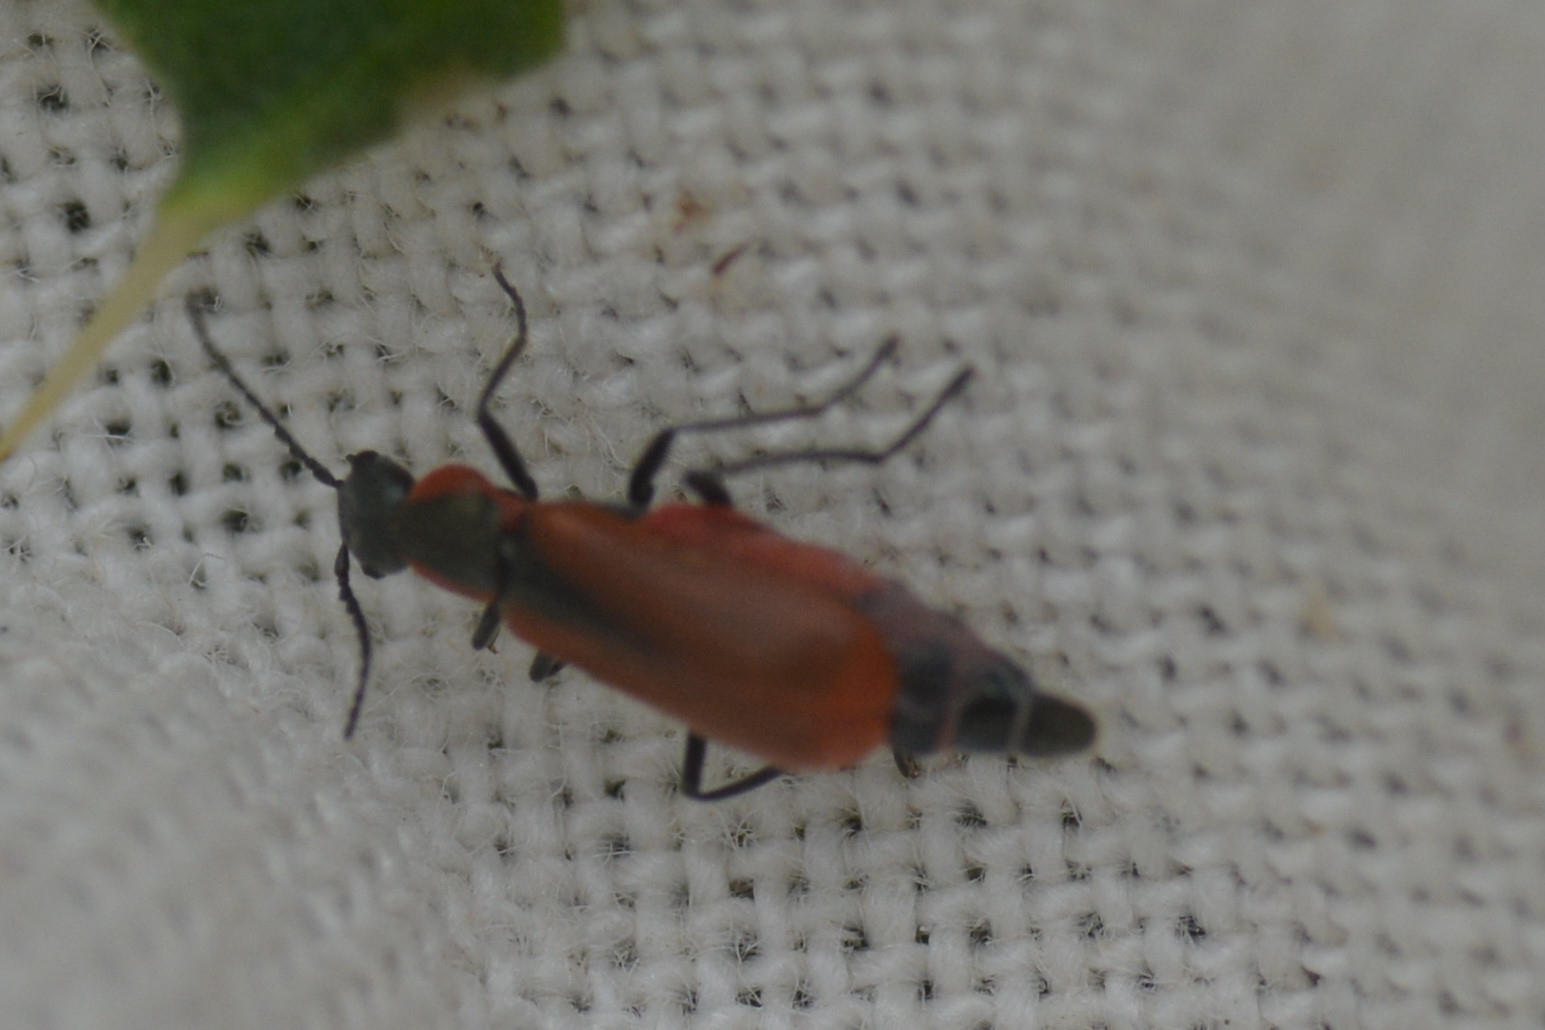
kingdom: Animalia
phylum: Arthropoda
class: Insecta
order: Coleoptera
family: Melyridae
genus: Anthocomus
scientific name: Anthocomus rufus
